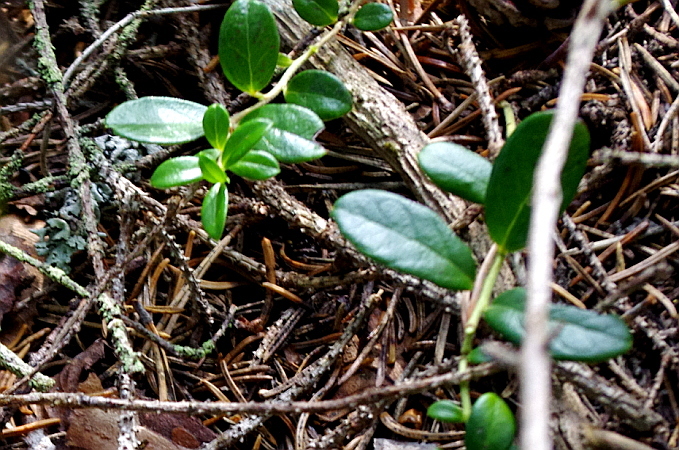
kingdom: Plantae
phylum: Tracheophyta
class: Magnoliopsida
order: Ericales
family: Ericaceae
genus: Vaccinium
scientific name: Vaccinium vitis-idaea
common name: Cowberry
